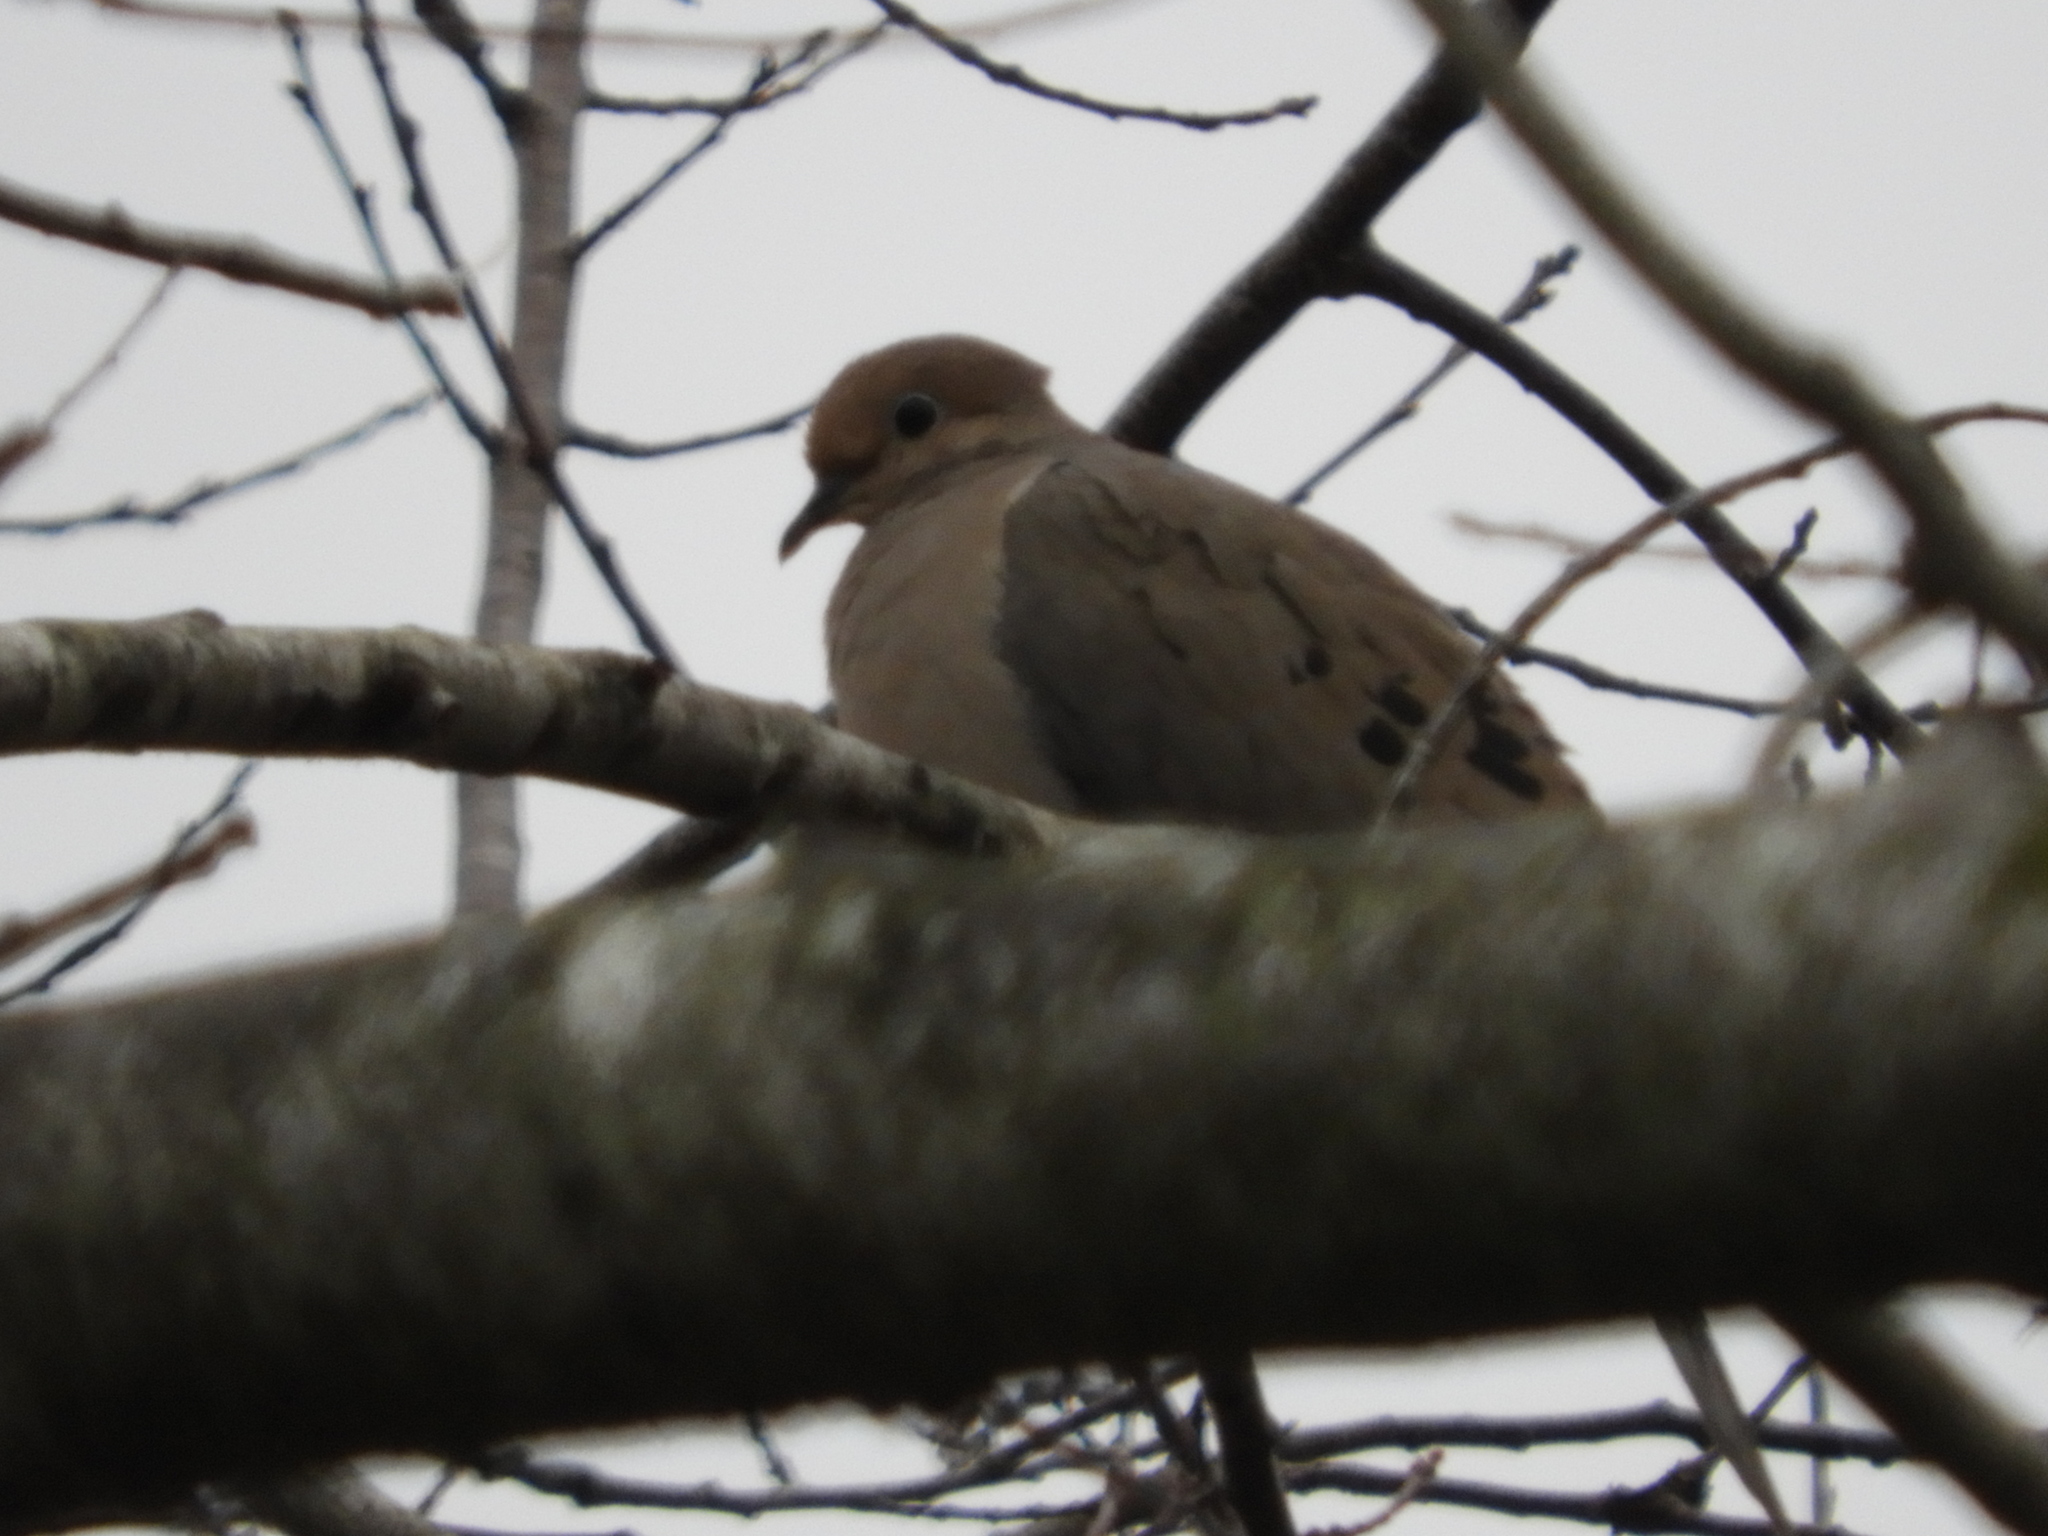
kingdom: Animalia
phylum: Chordata
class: Aves
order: Columbiformes
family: Columbidae
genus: Zenaida
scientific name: Zenaida macroura
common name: Mourning dove
